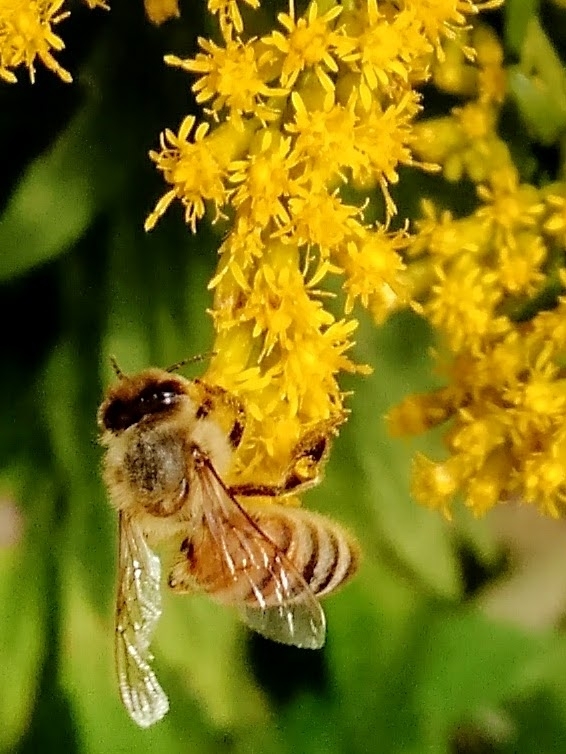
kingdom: Animalia
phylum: Arthropoda
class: Insecta
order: Hymenoptera
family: Apidae
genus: Apis
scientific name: Apis mellifera
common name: Honey bee
